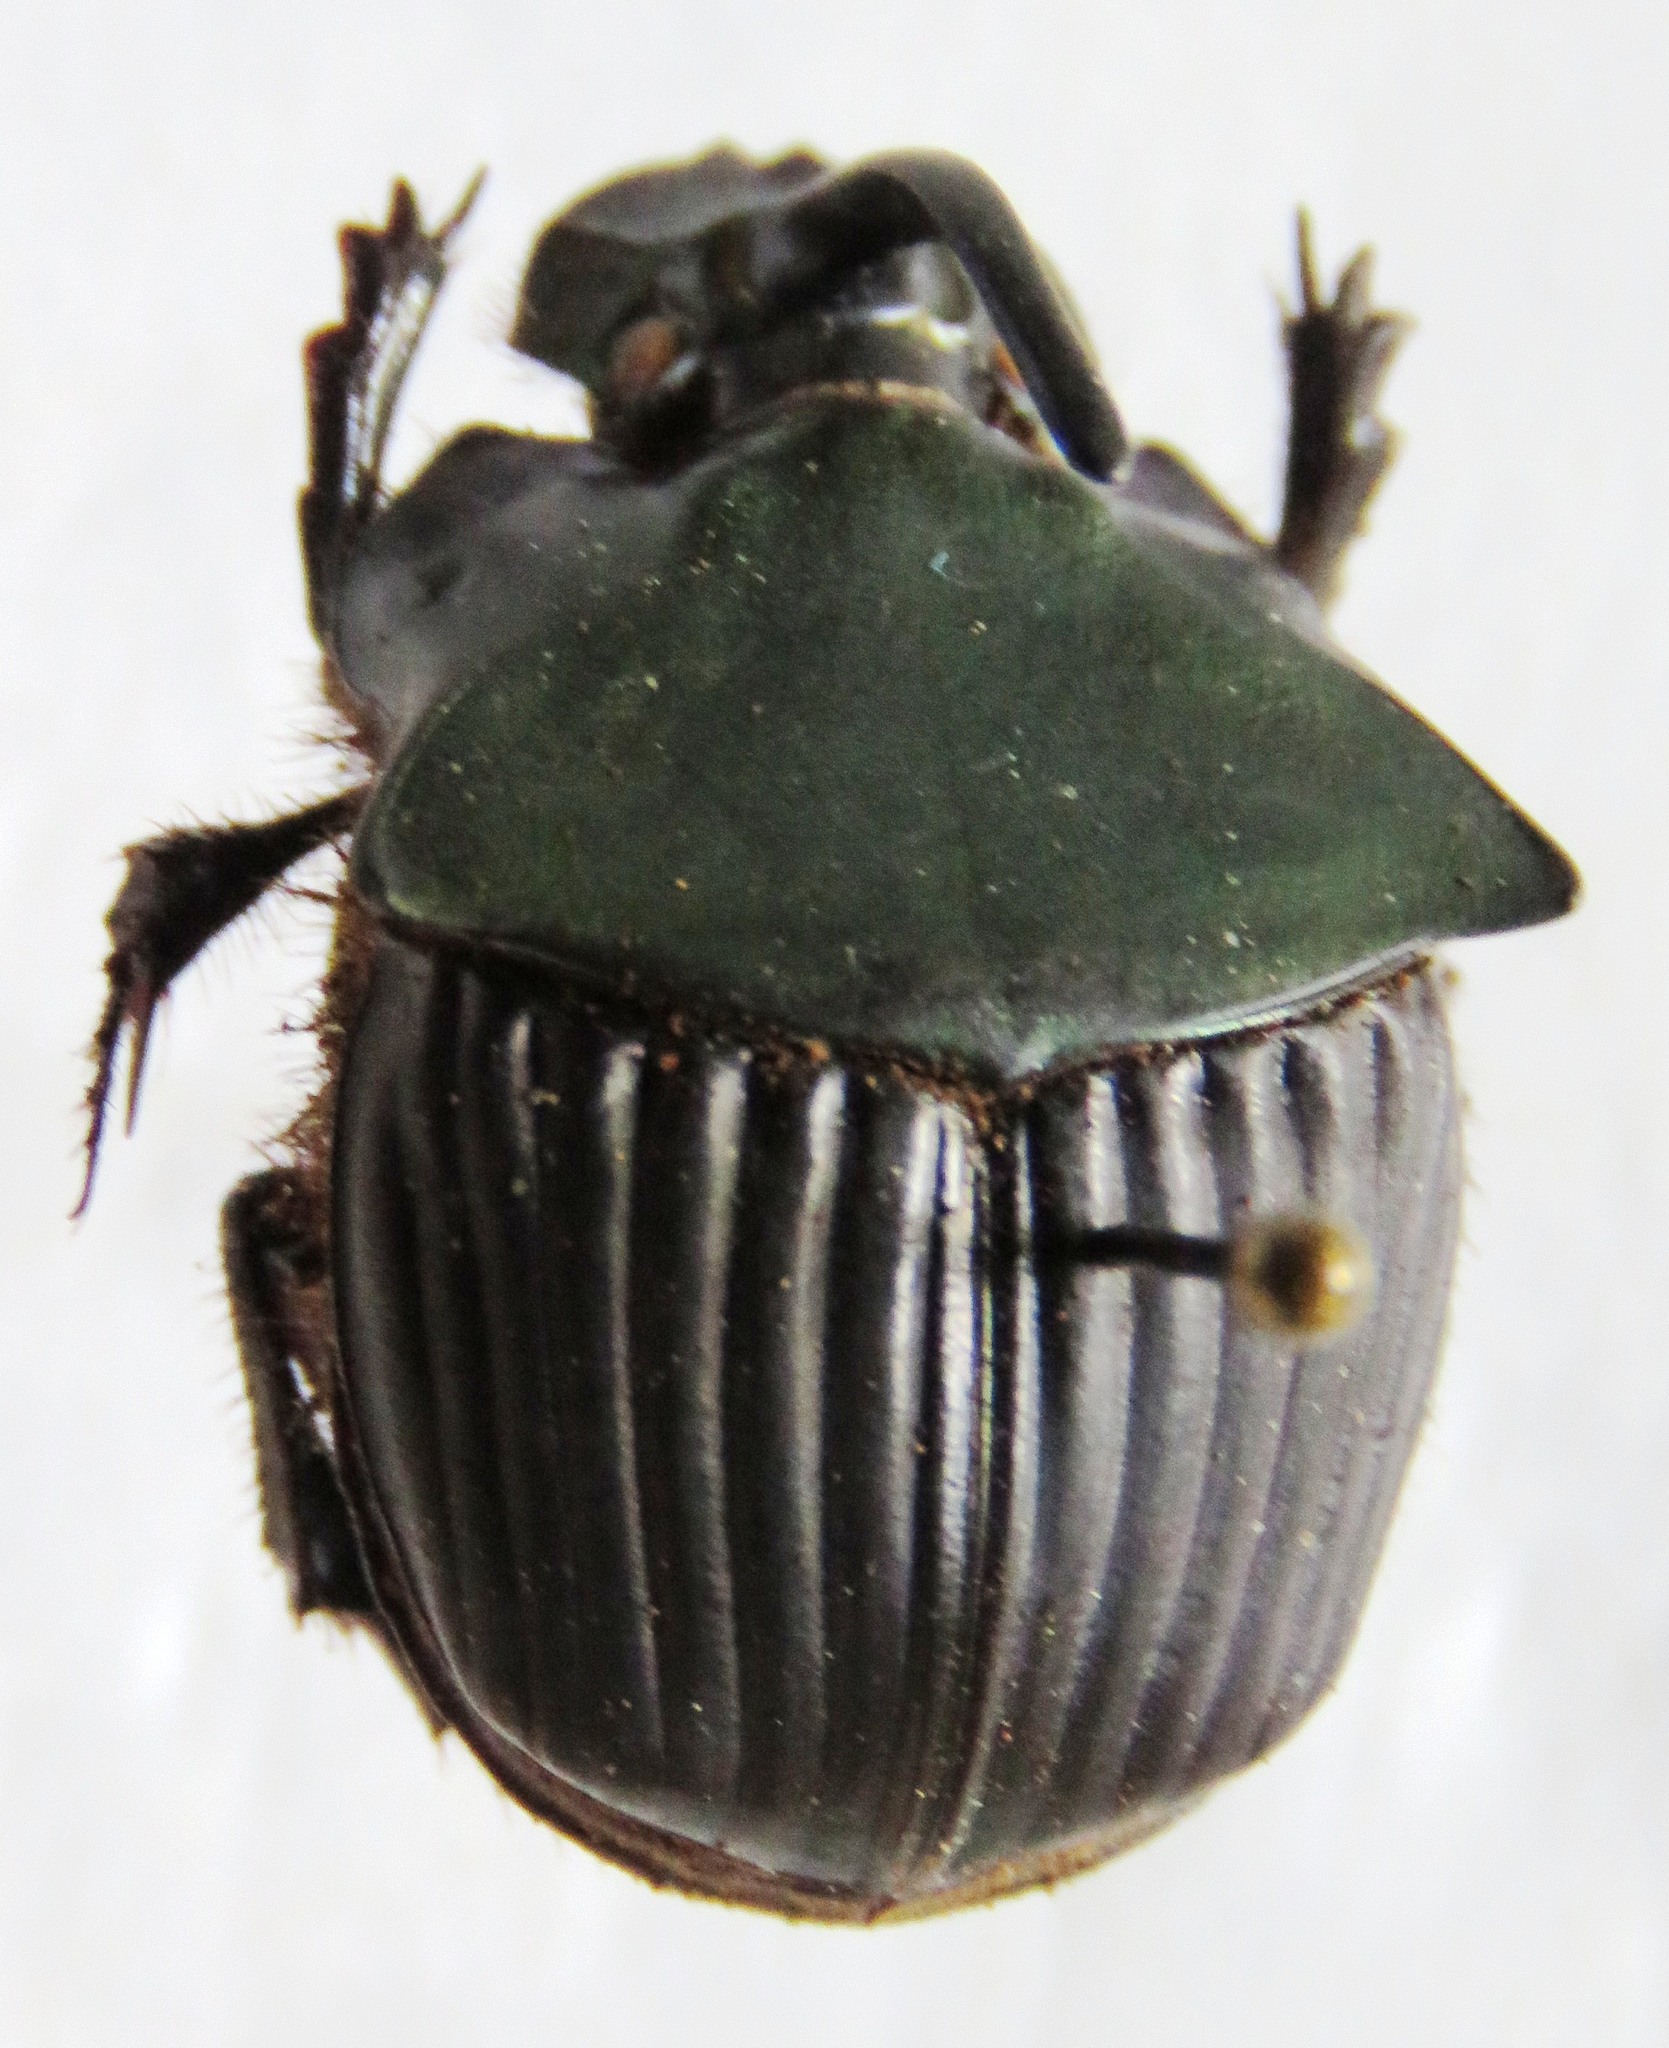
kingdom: Animalia
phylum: Arthropoda
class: Insecta
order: Coleoptera
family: Scarabaeidae
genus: Phanaeus
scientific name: Phanaeus pyrois
